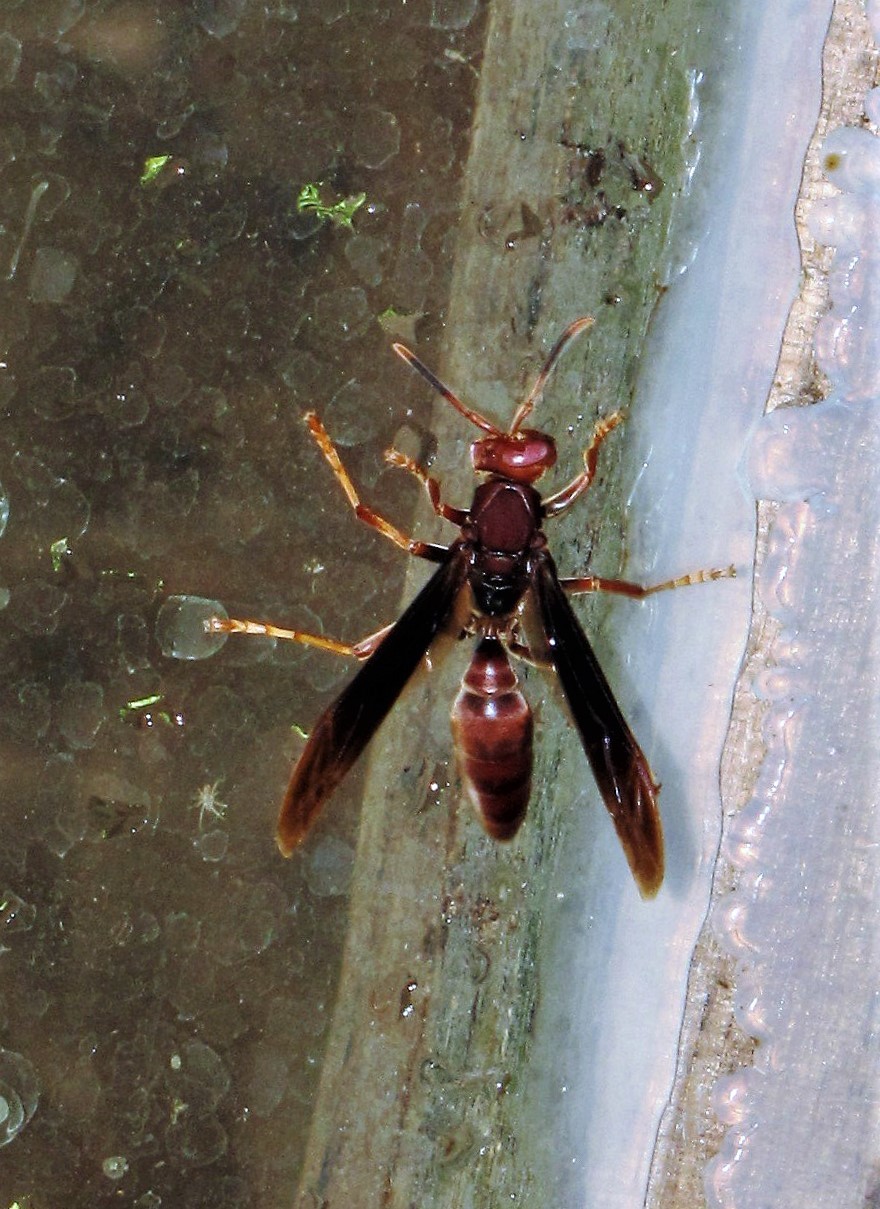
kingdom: Animalia
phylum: Arthropoda
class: Insecta
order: Hymenoptera
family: Pompilidae
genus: Aphanilopterus
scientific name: Aphanilopterus
